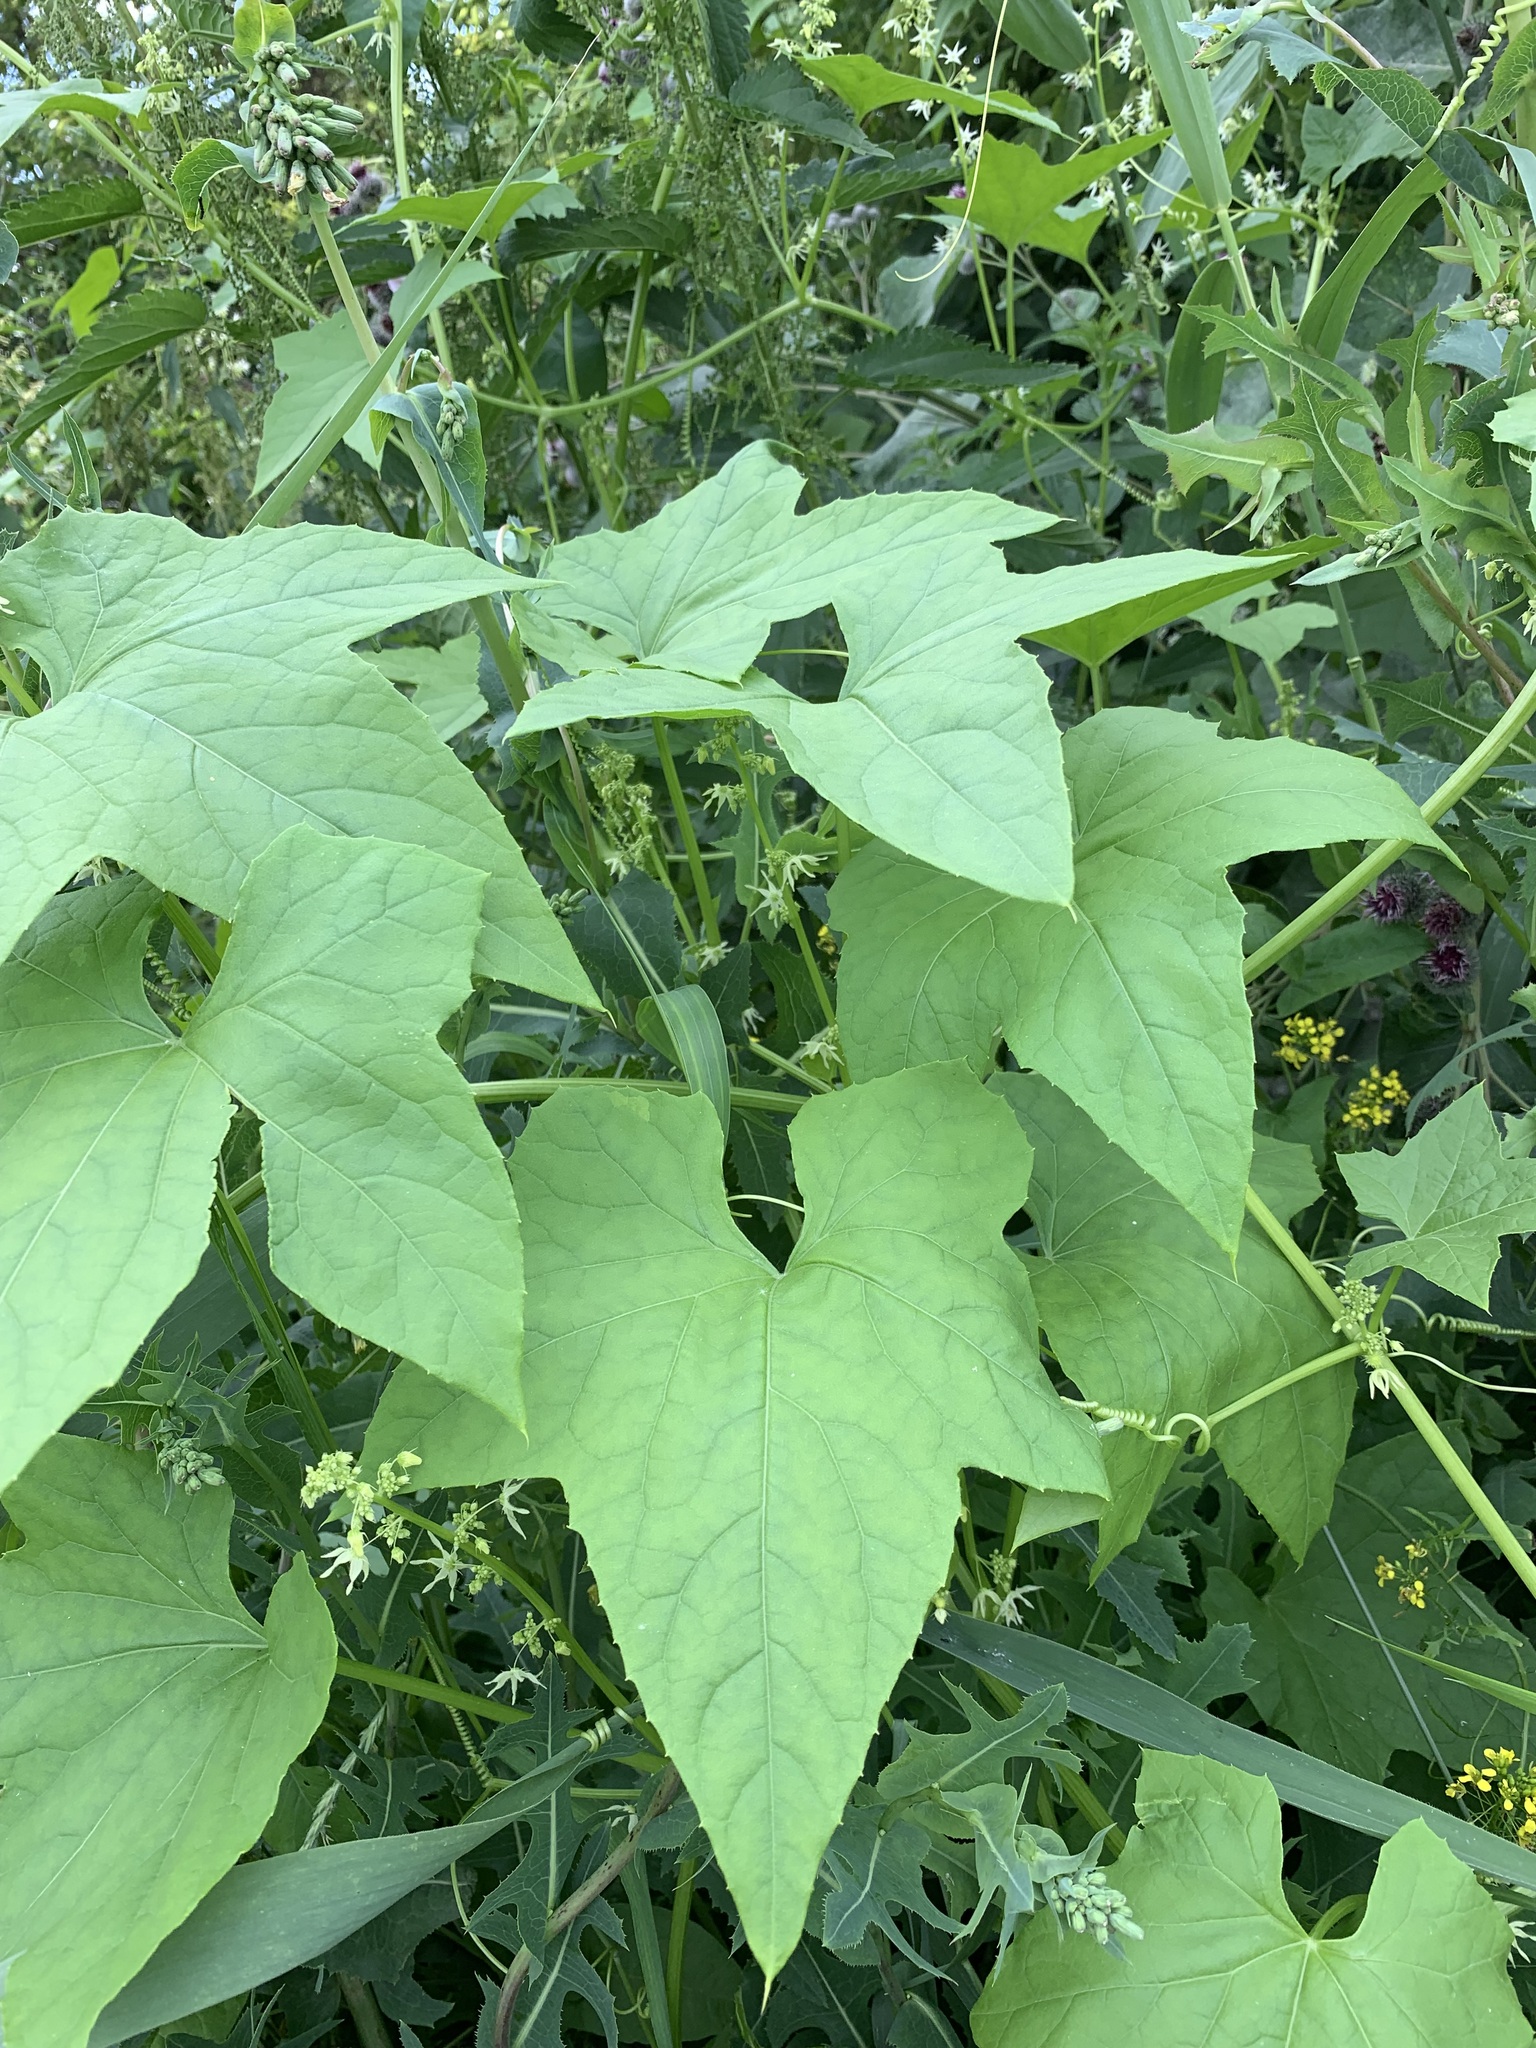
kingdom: Plantae
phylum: Tracheophyta
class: Magnoliopsida
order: Cucurbitales
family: Cucurbitaceae
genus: Echinocystis
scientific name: Echinocystis lobata
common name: Wild cucumber
